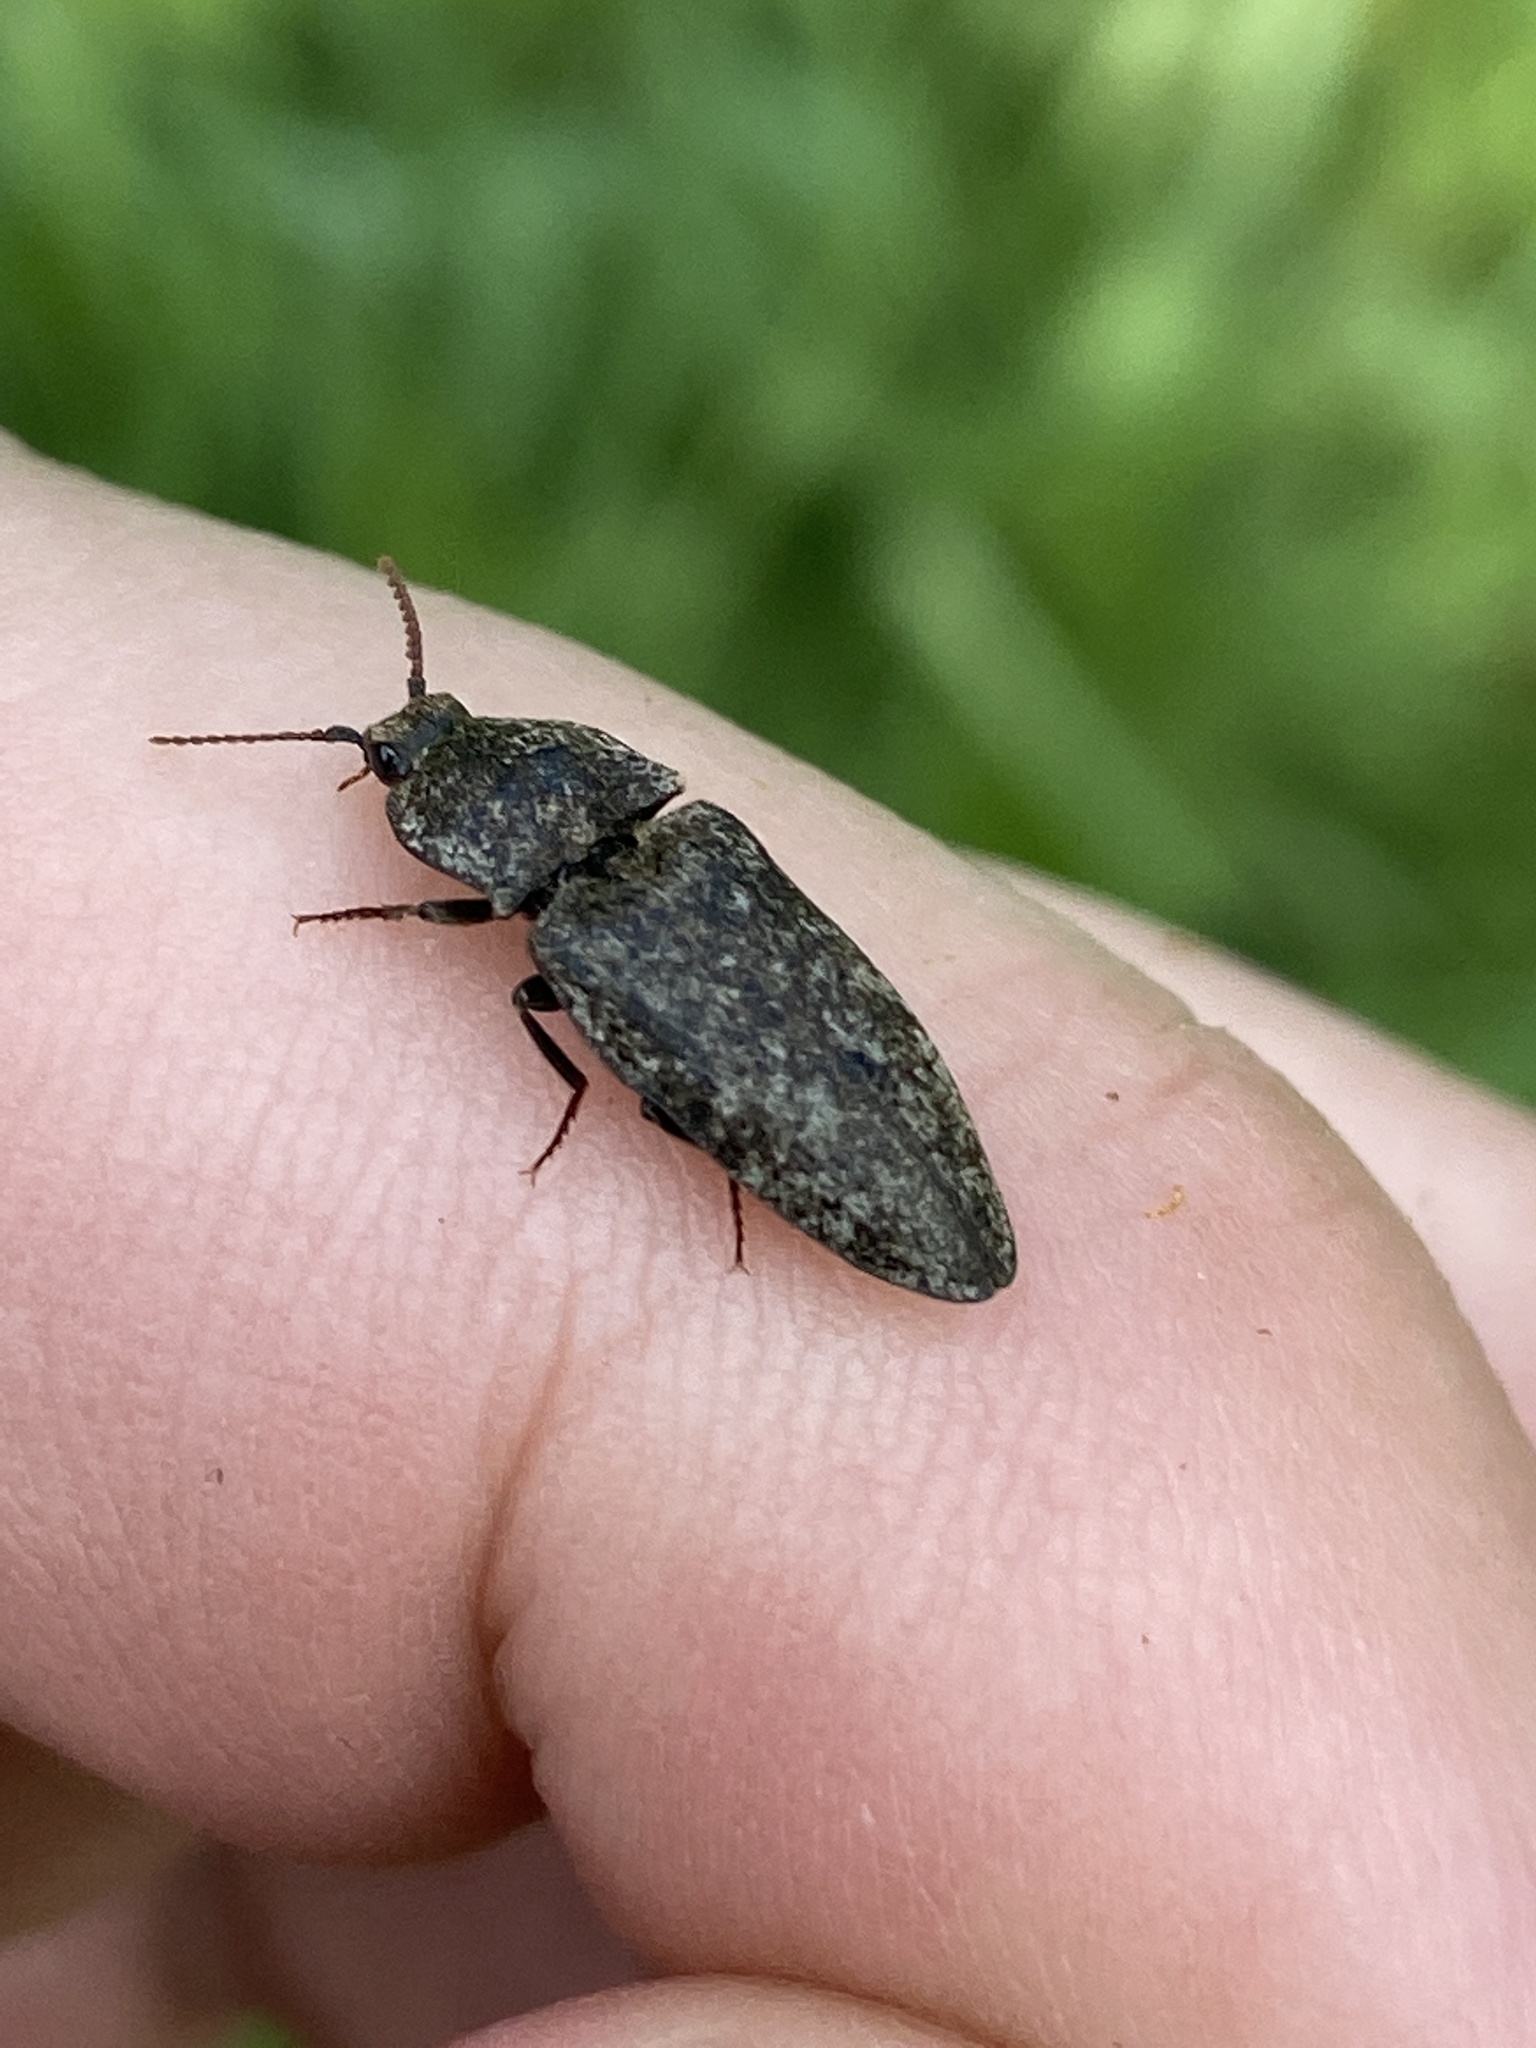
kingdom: Animalia
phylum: Arthropoda
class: Insecta
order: Coleoptera
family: Elateridae
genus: Agrypnus
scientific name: Agrypnus murinus
